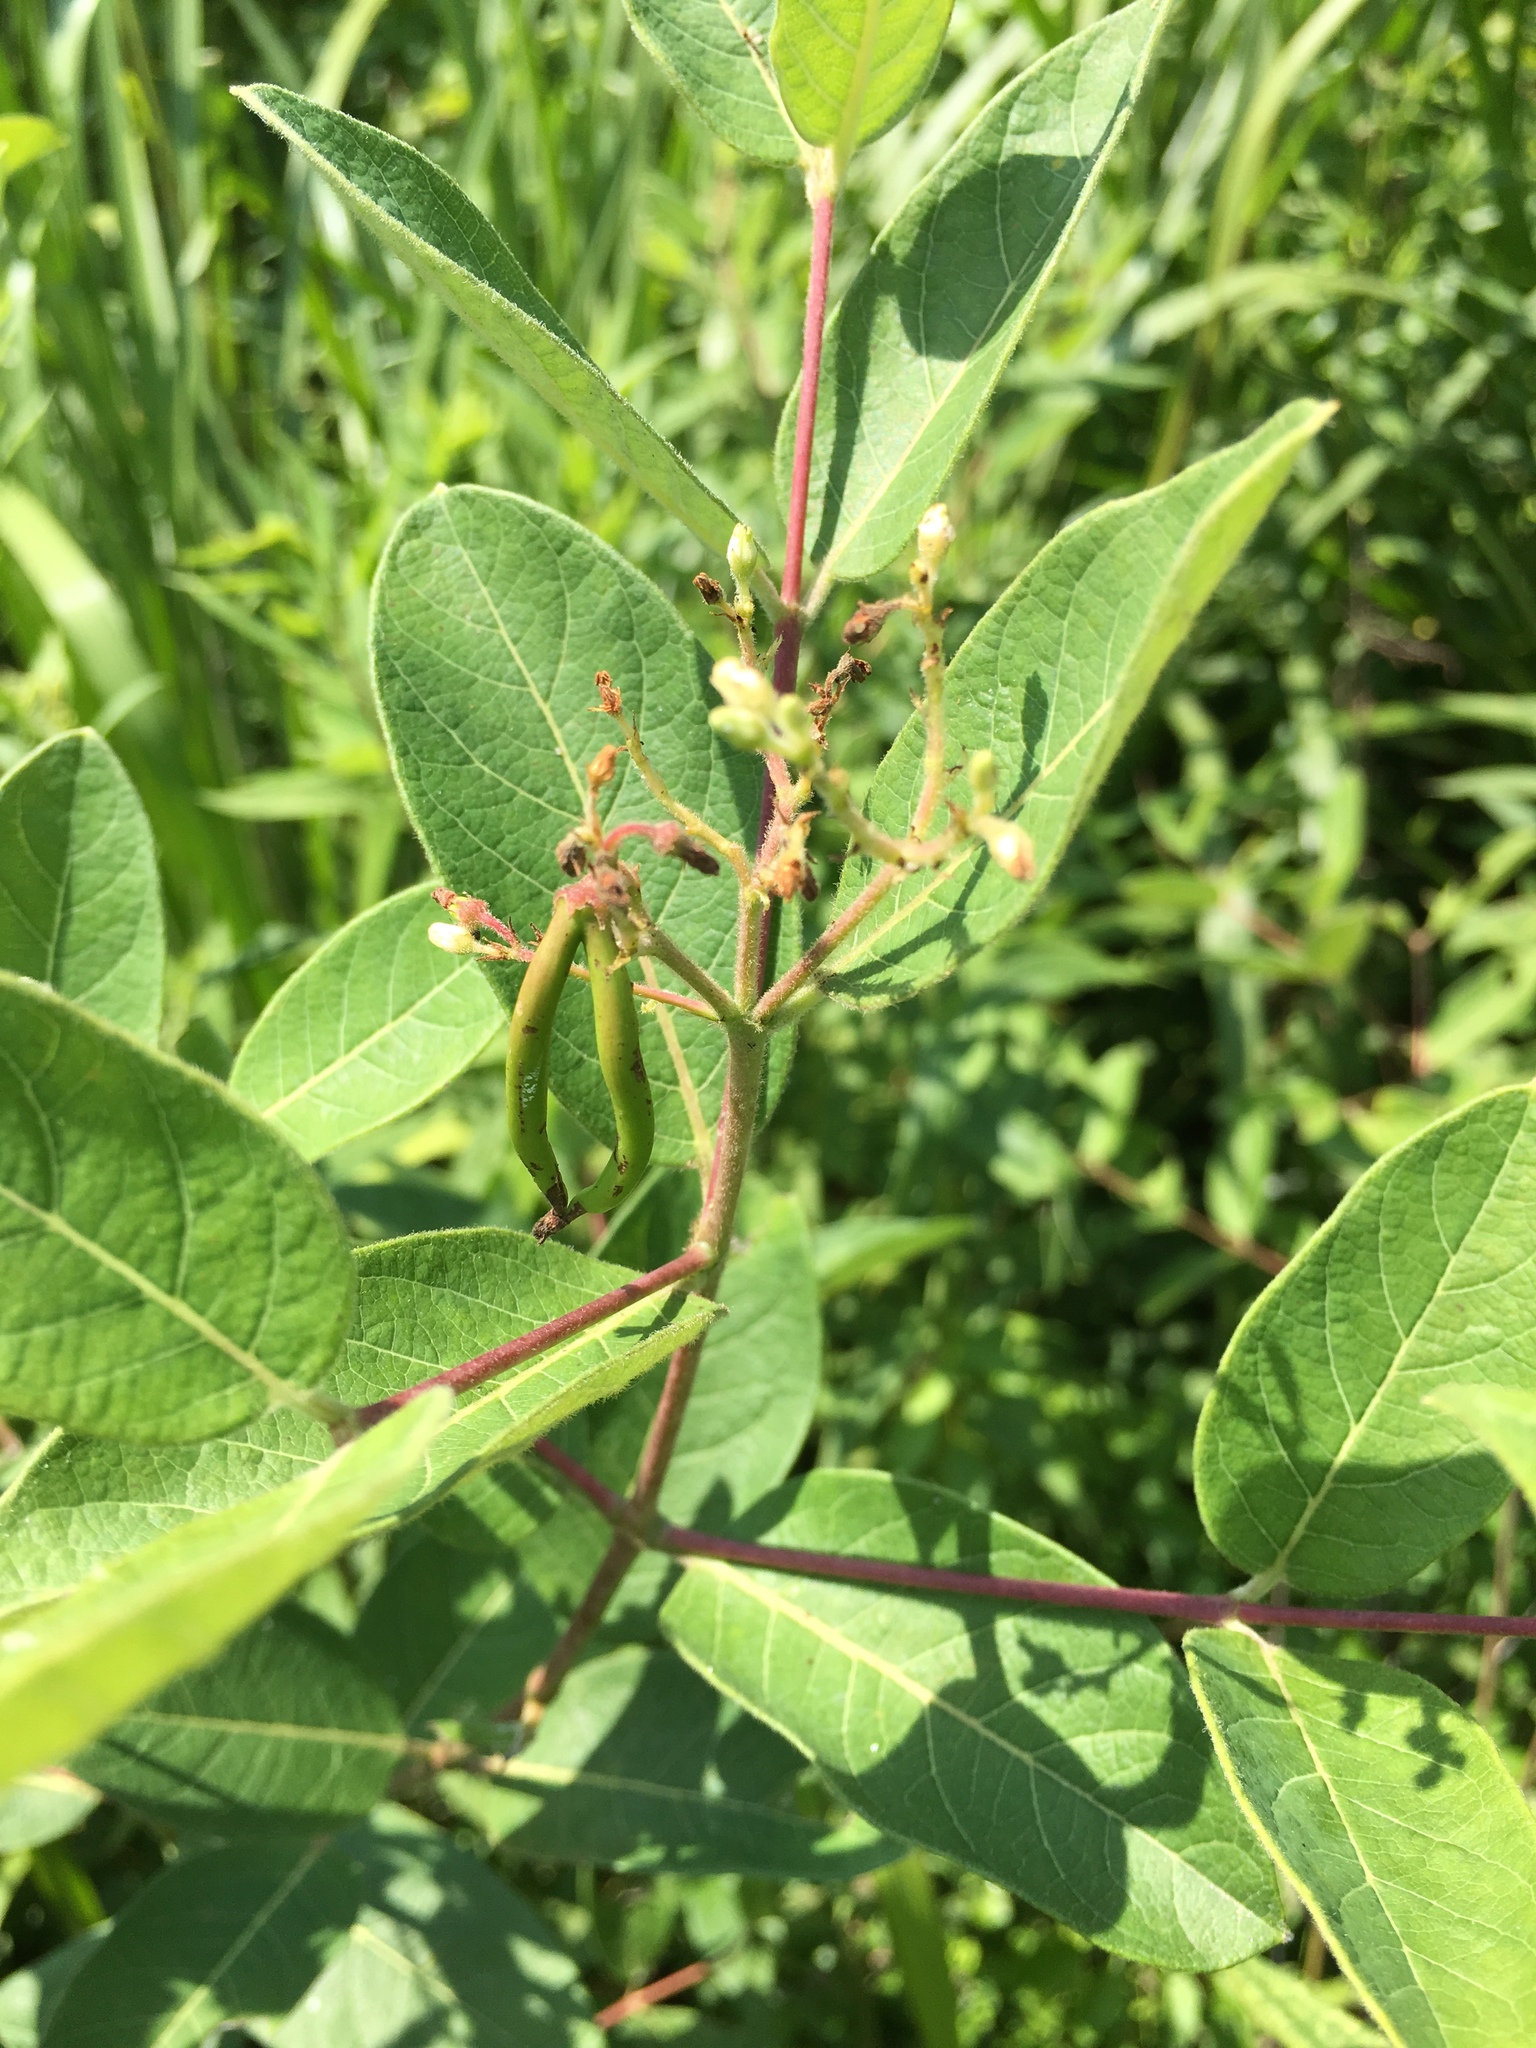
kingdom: Plantae
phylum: Tracheophyta
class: Magnoliopsida
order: Gentianales
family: Apocynaceae
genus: Apocynum
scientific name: Apocynum cannabinum
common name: Hemp dogbane
